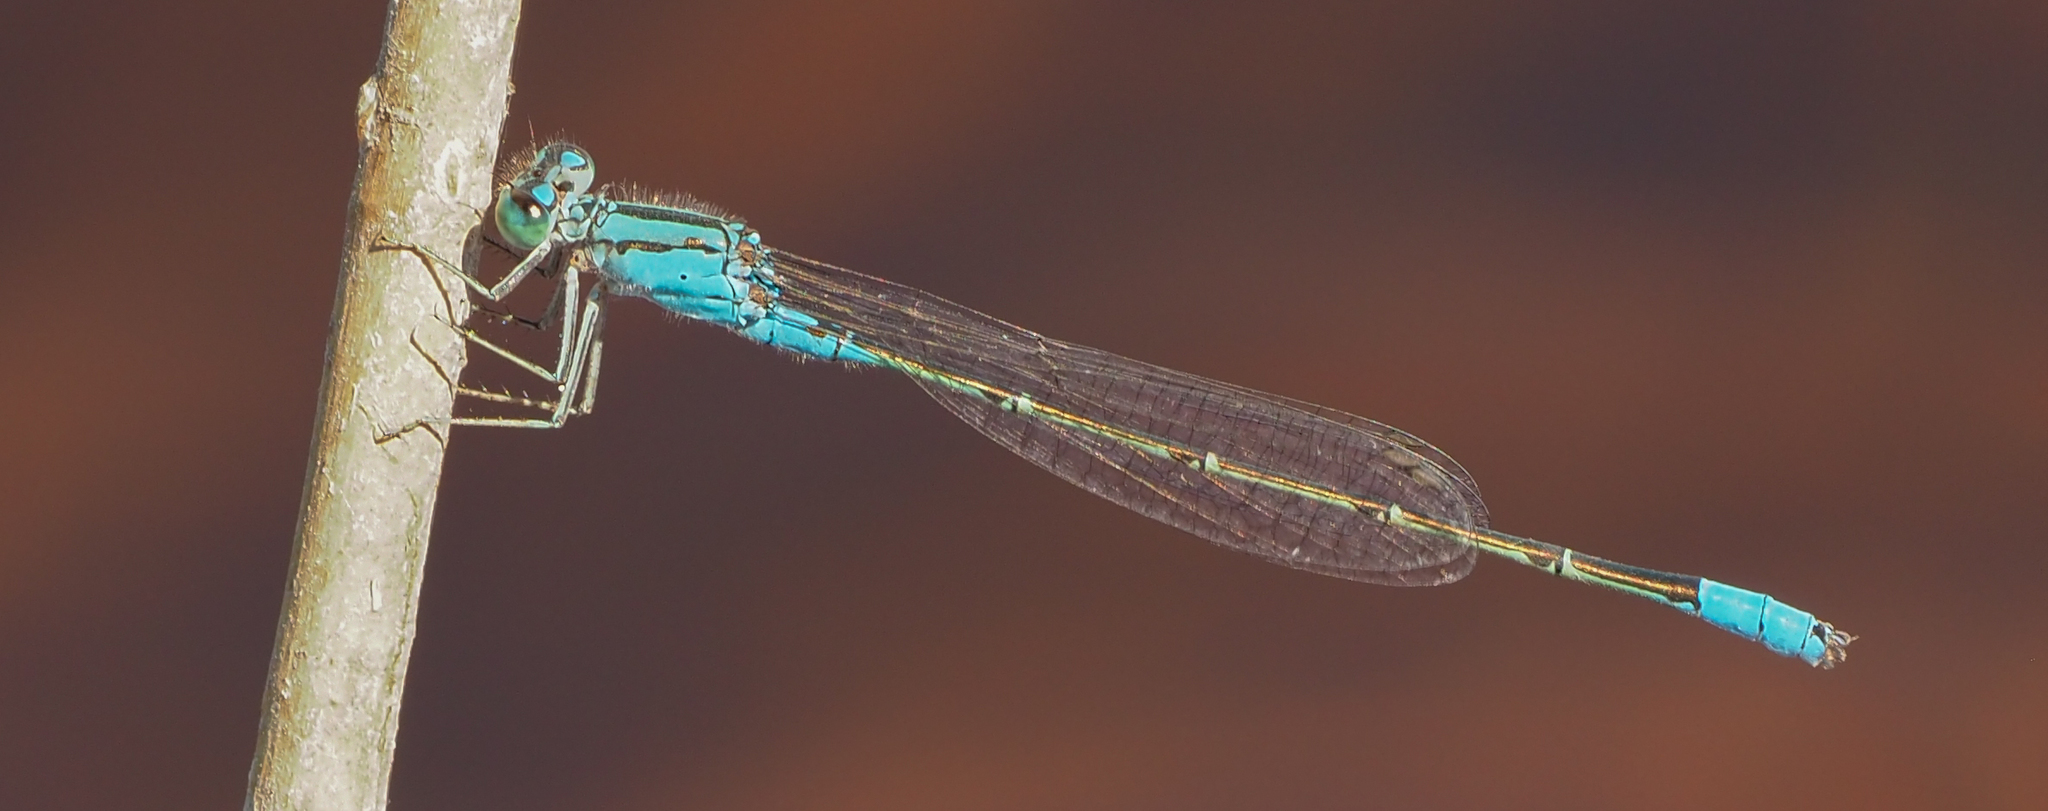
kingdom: Animalia
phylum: Arthropoda
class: Insecta
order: Odonata
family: Coenagrionidae
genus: Pseudagrion
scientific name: Pseudagrion coeleste
